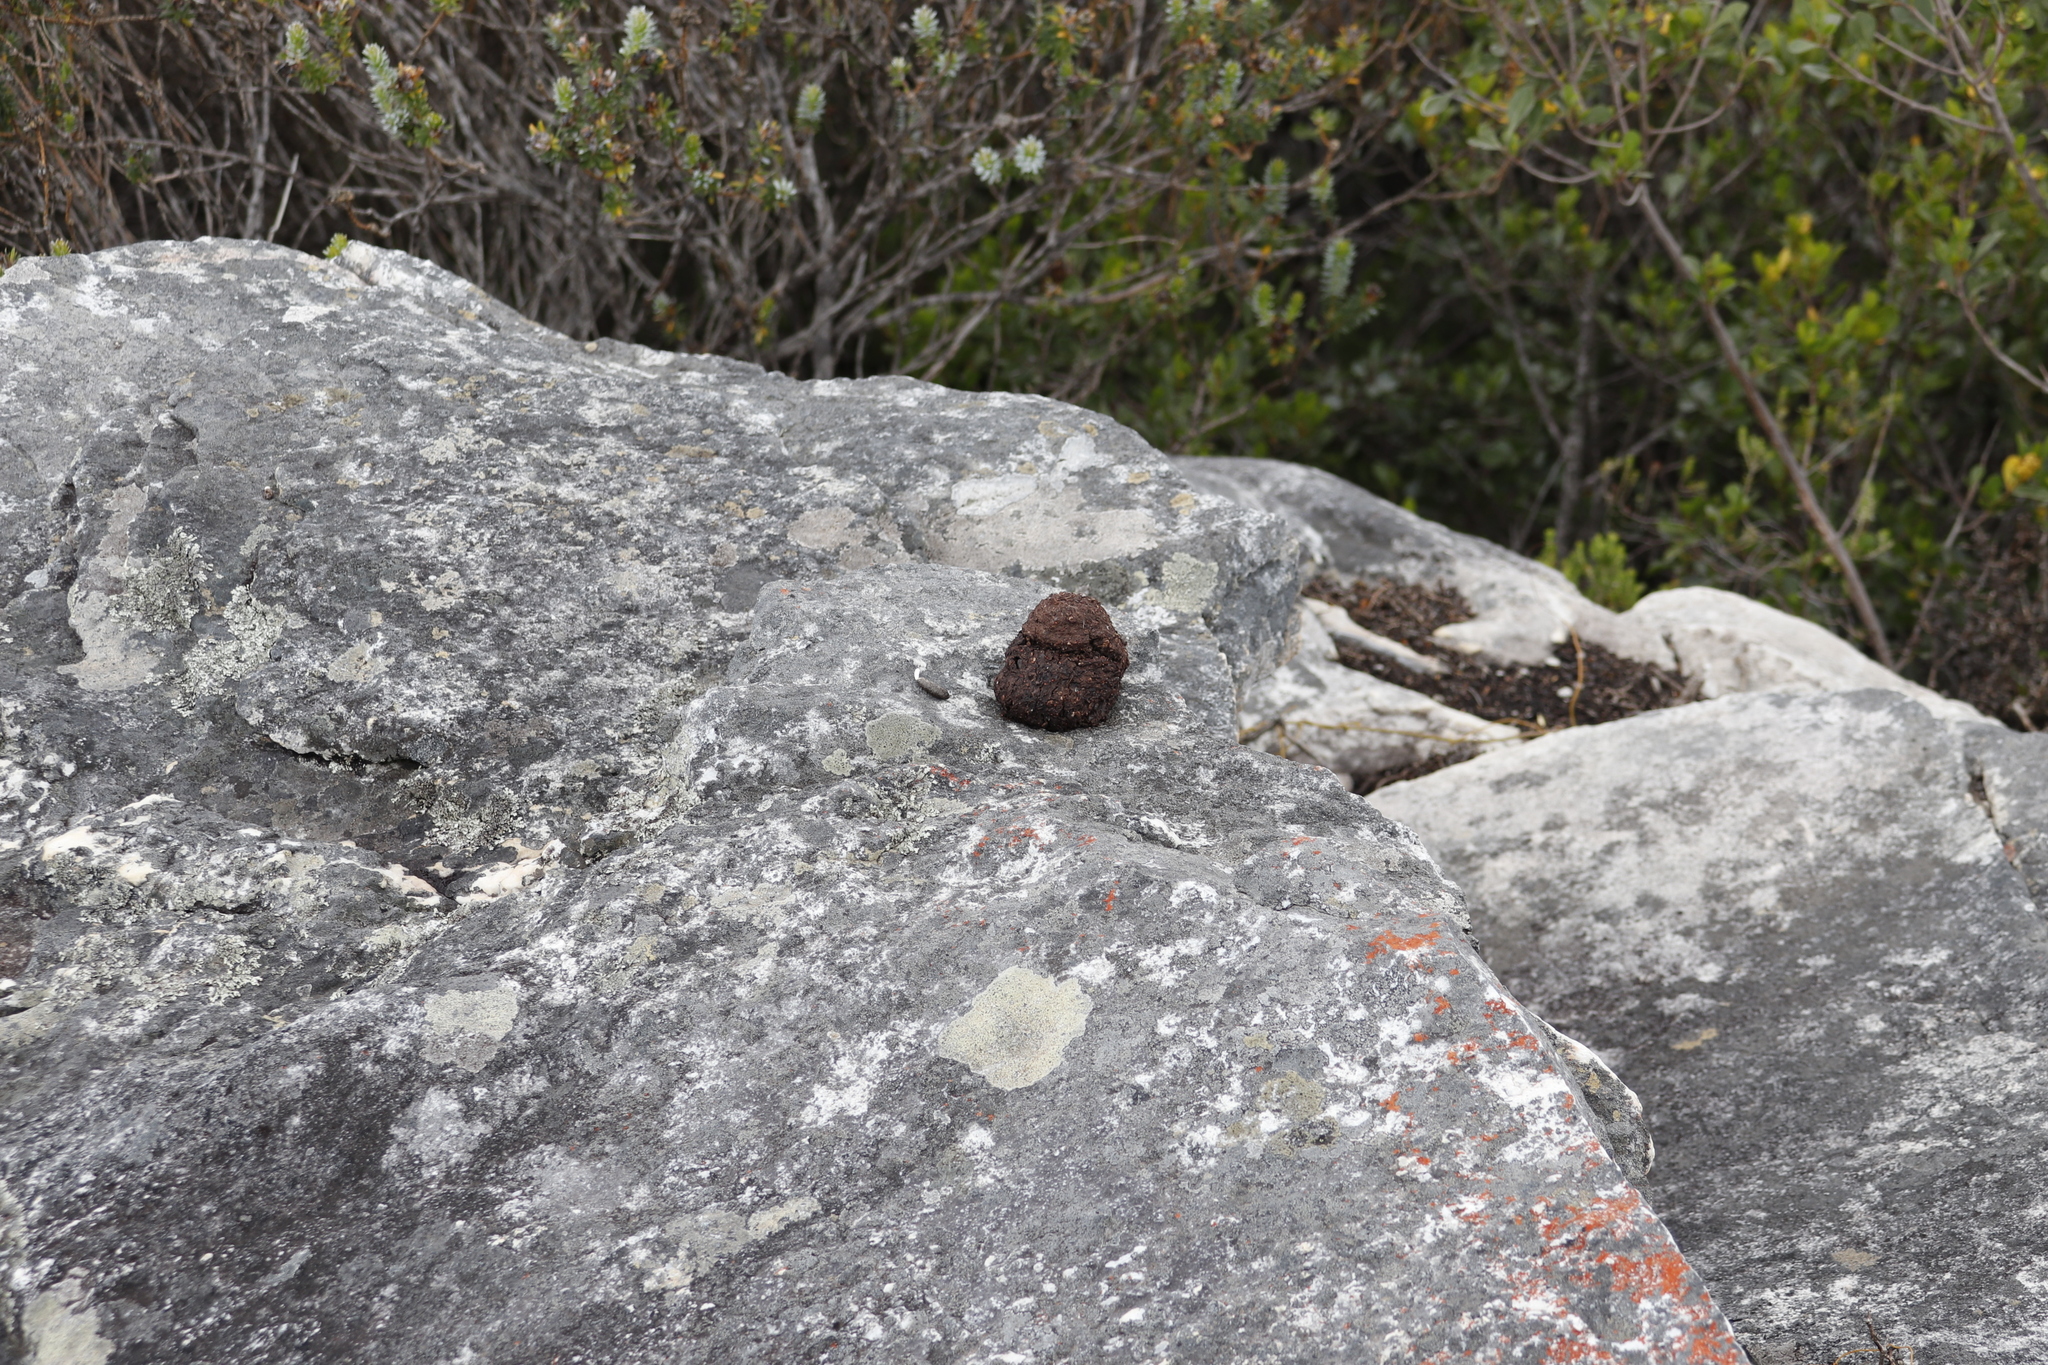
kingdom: Animalia
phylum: Chordata
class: Mammalia
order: Primates
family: Cercopithecidae
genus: Papio
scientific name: Papio ursinus
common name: Chacma baboon
